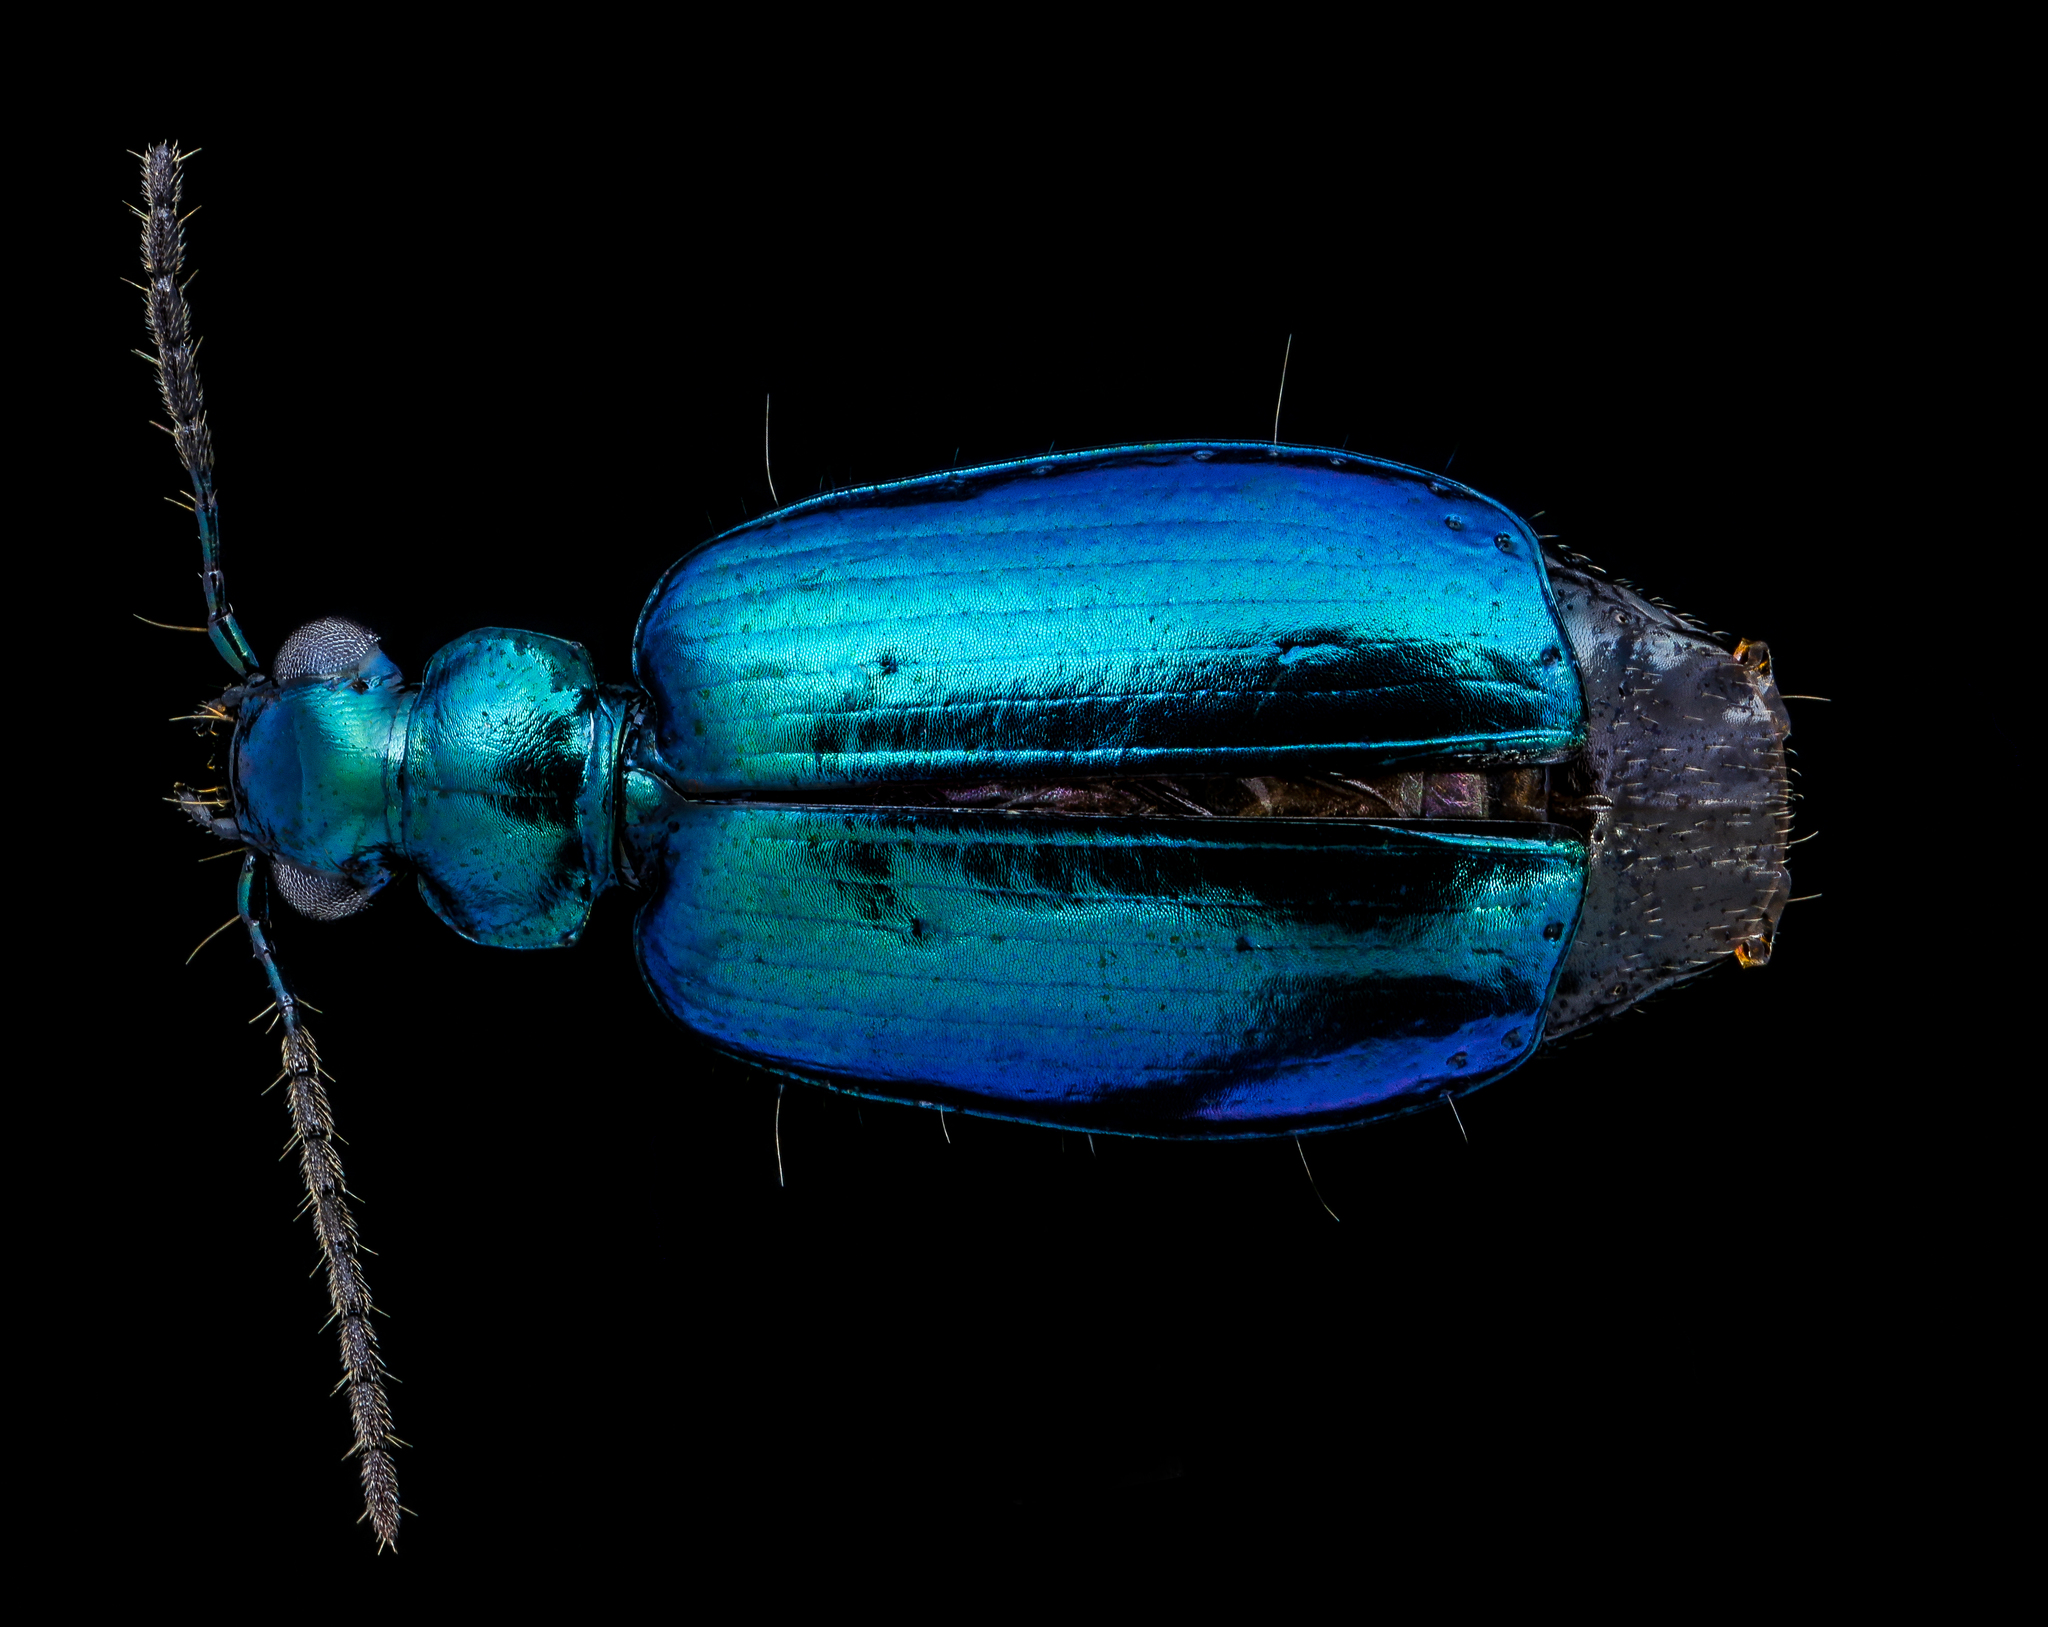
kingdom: Animalia
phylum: Arthropoda
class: Insecta
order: Coleoptera
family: Carabidae
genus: Lebia
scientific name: Lebia viridis
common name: Flower lebia beetle
